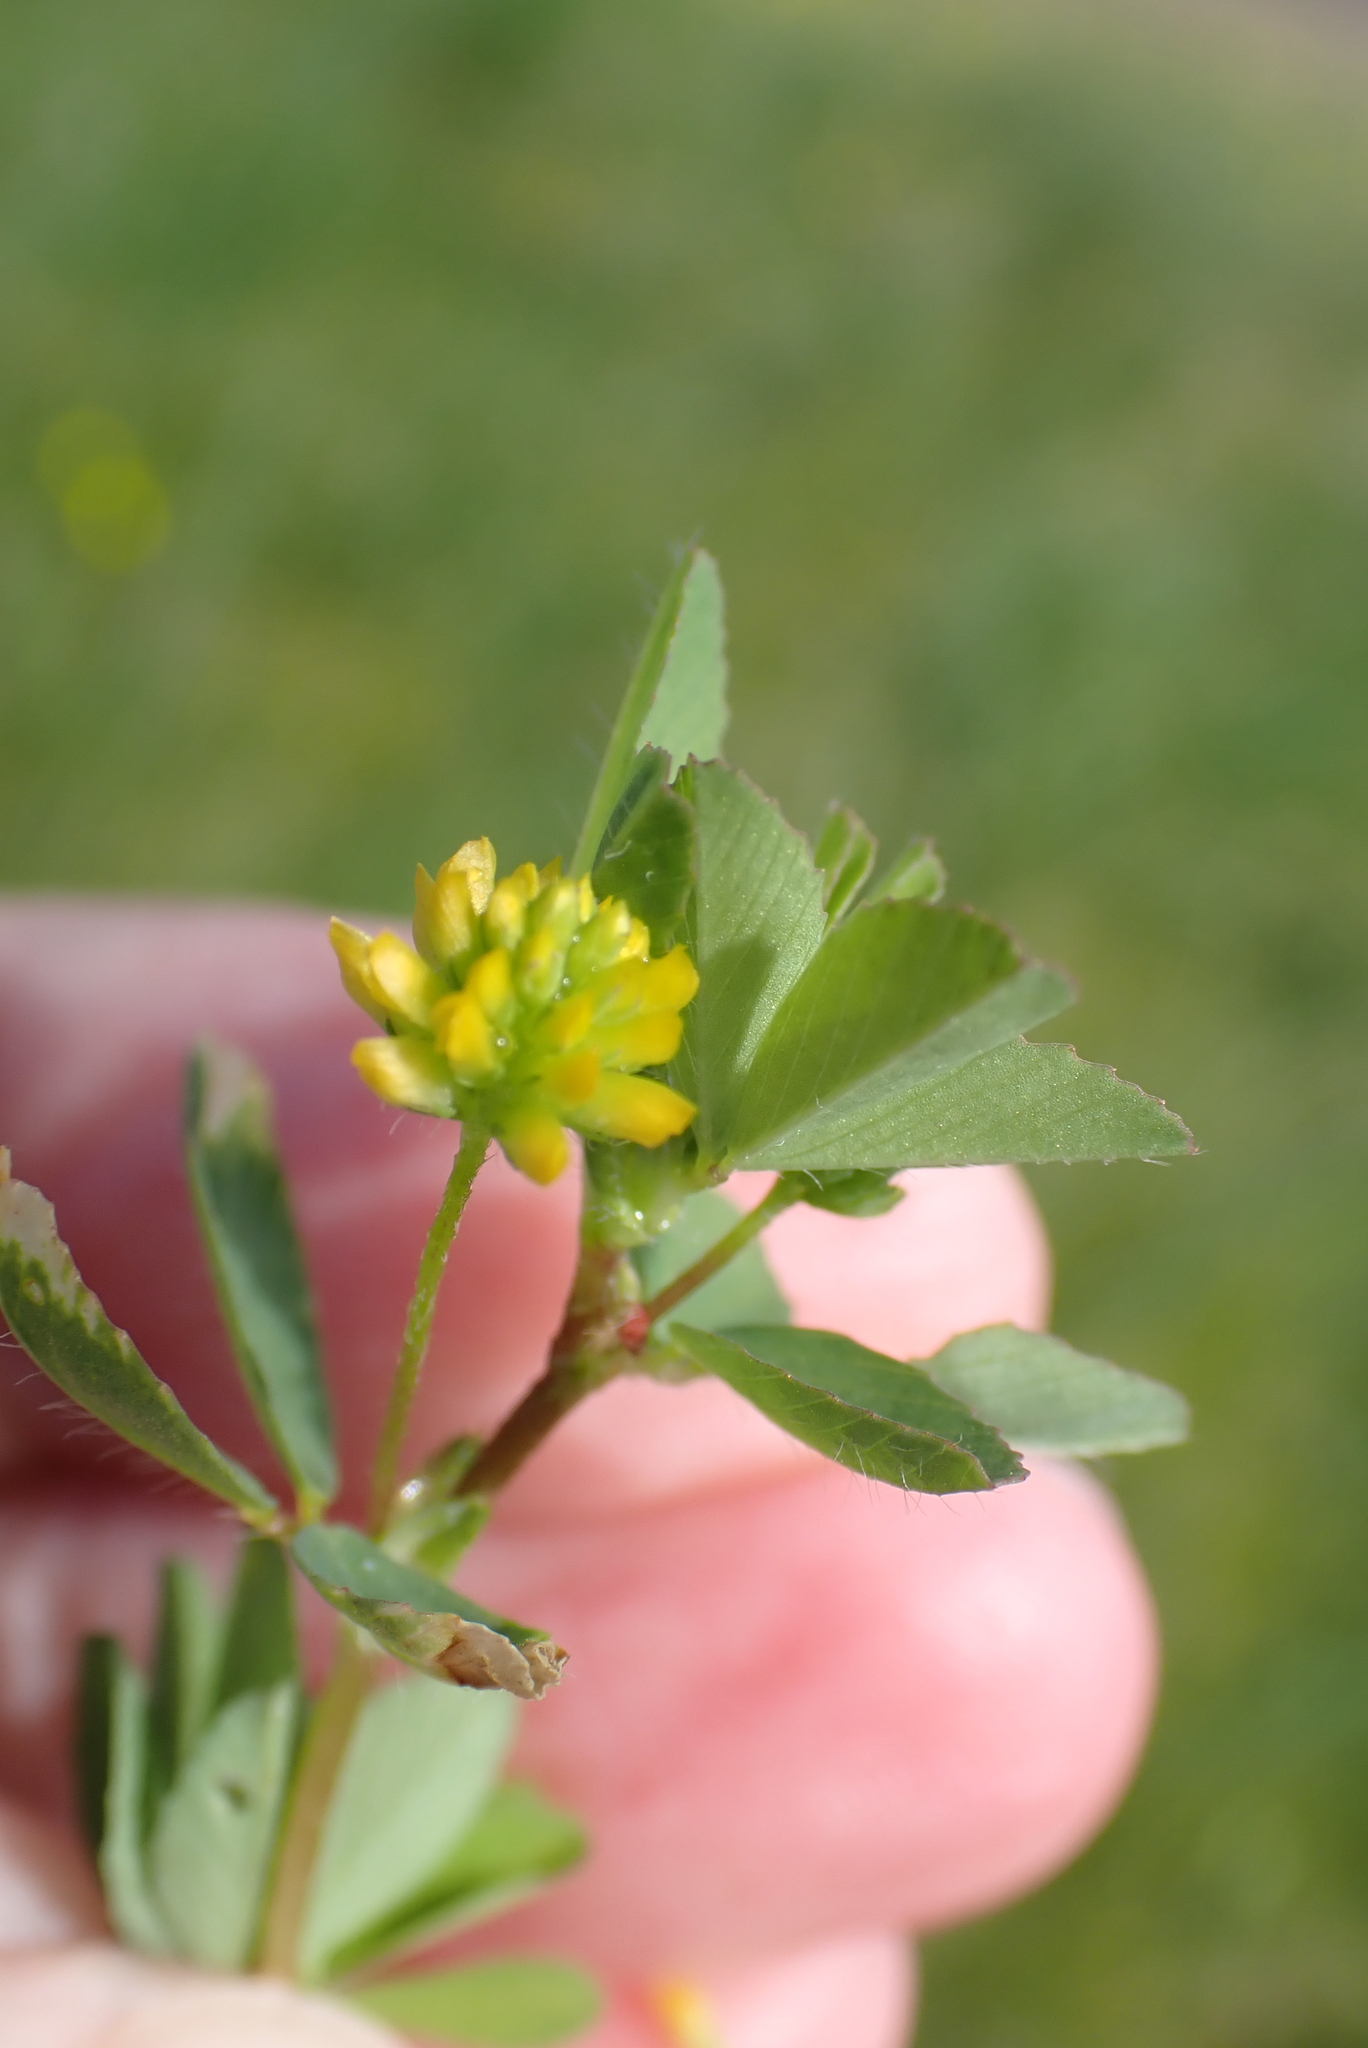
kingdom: Plantae
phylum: Tracheophyta
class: Magnoliopsida
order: Fabales
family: Fabaceae
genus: Trifolium
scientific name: Trifolium dubium
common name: Suckling clover
